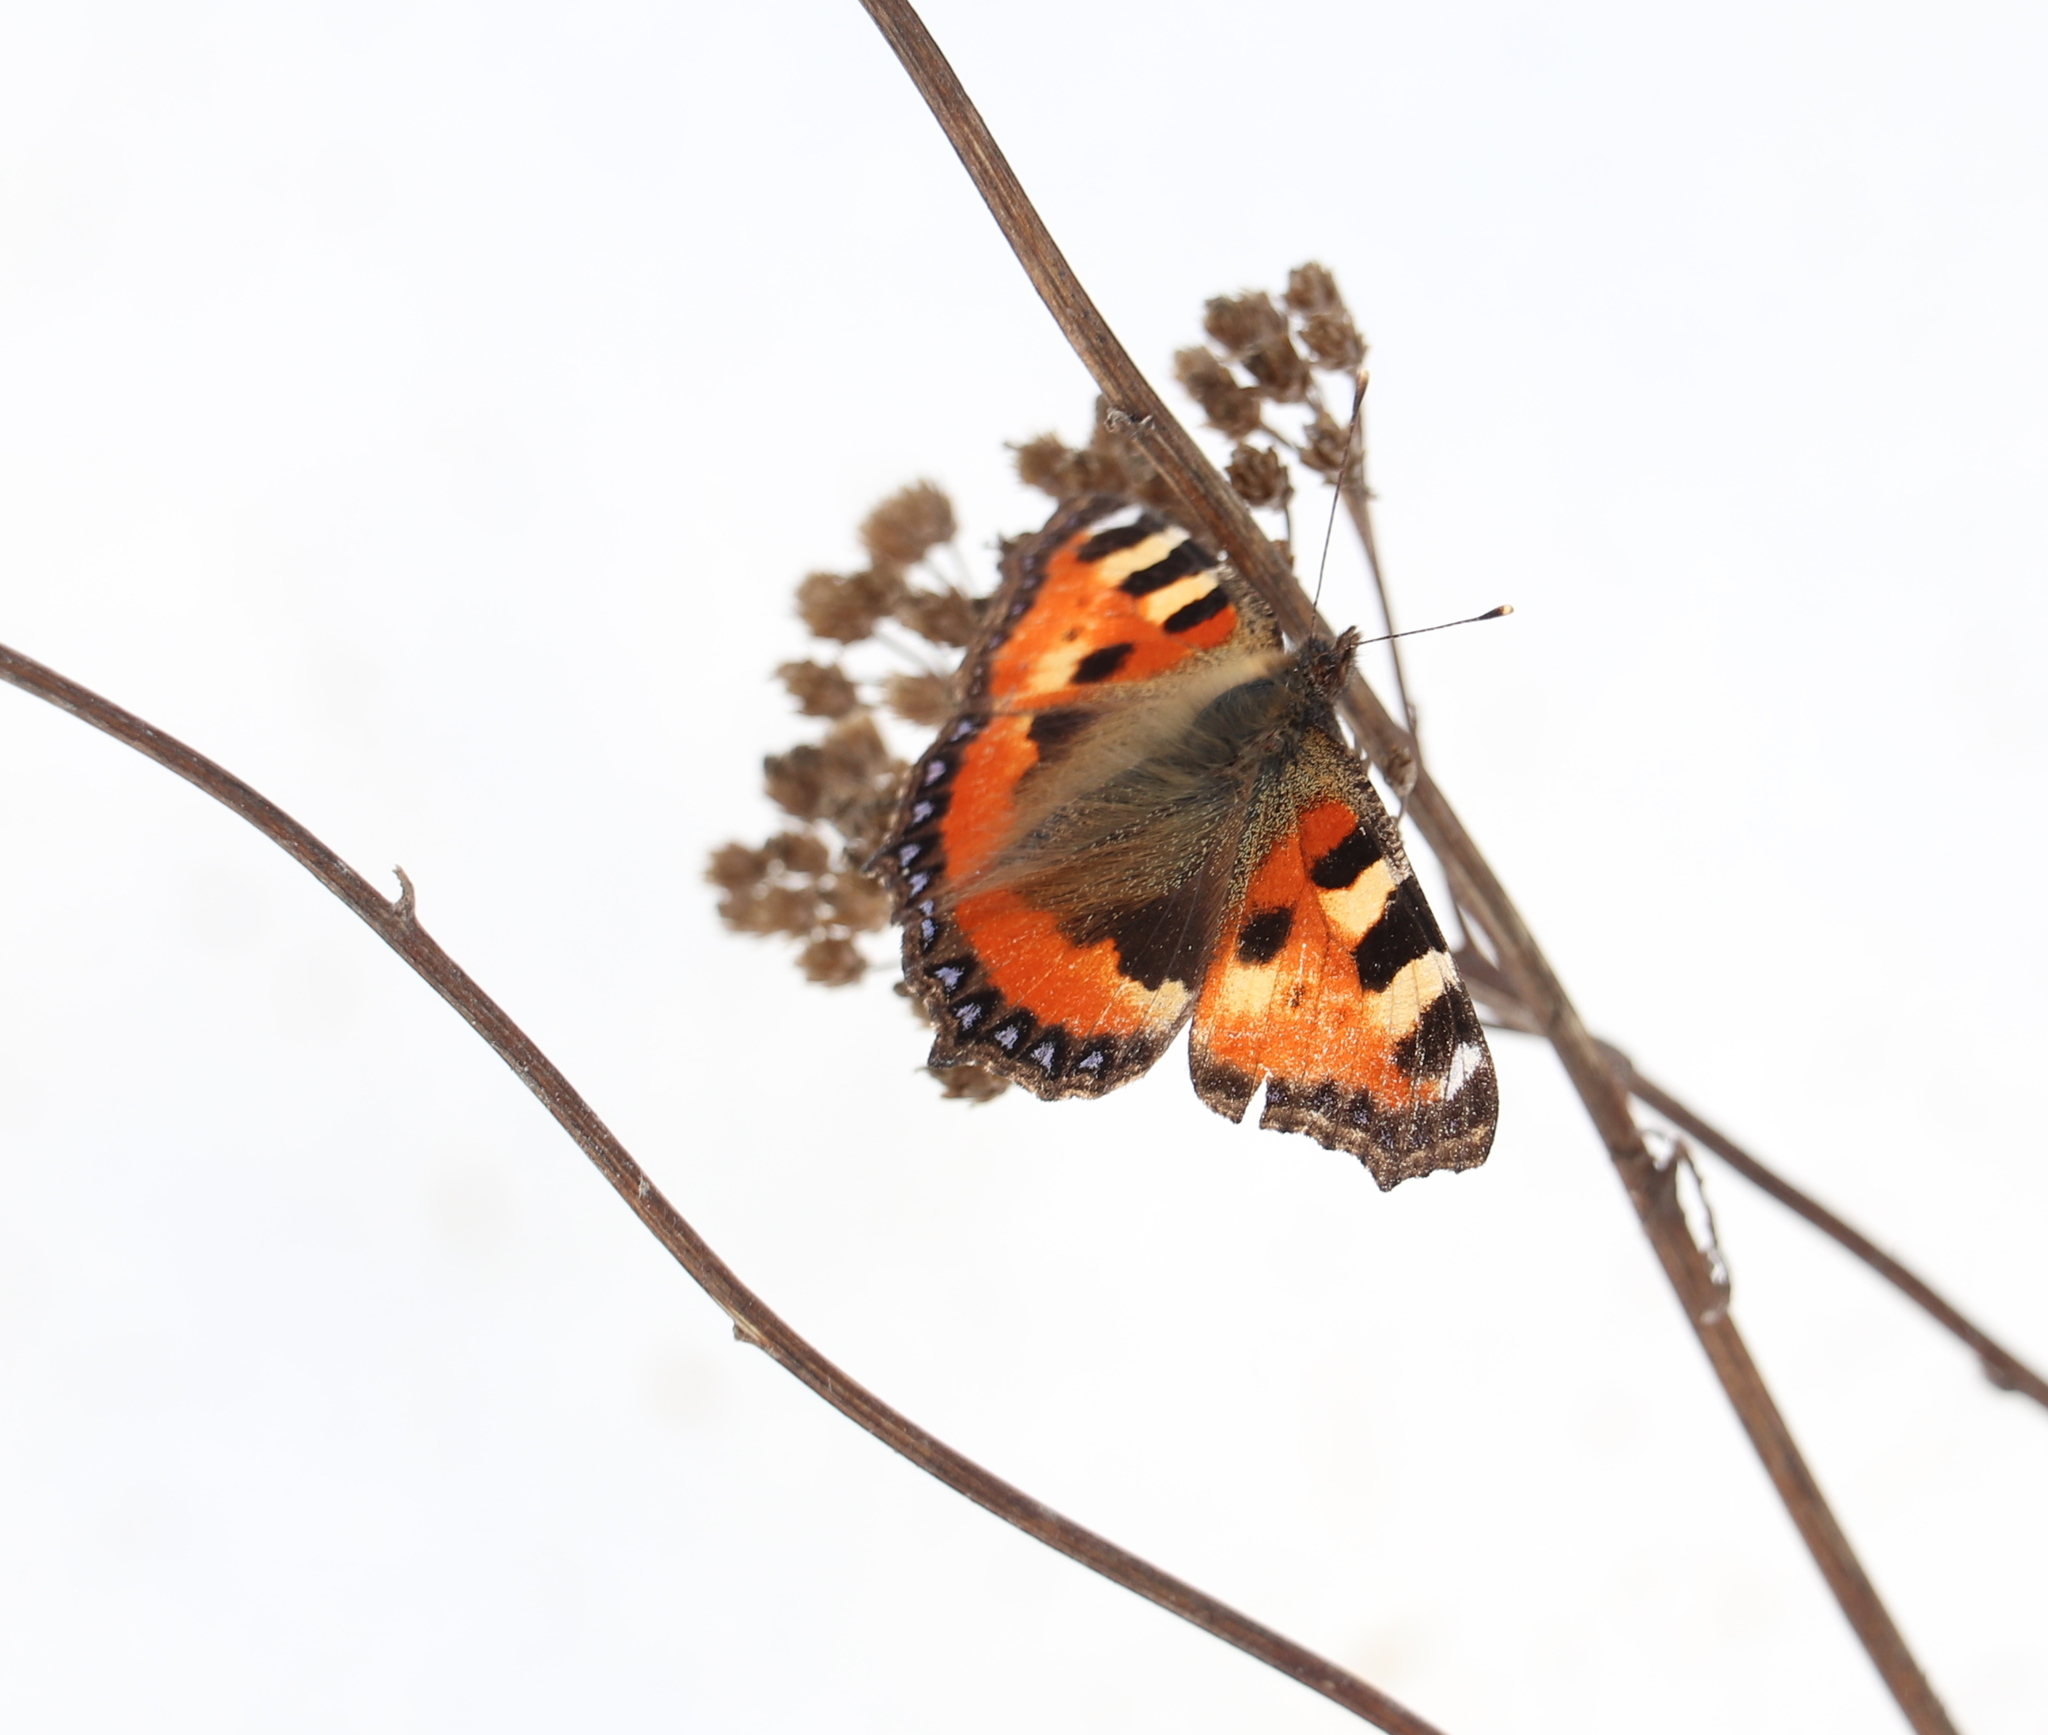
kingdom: Animalia
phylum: Arthropoda
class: Insecta
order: Lepidoptera
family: Nymphalidae
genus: Aglais
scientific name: Aglais urticae
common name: Small tortoiseshell
